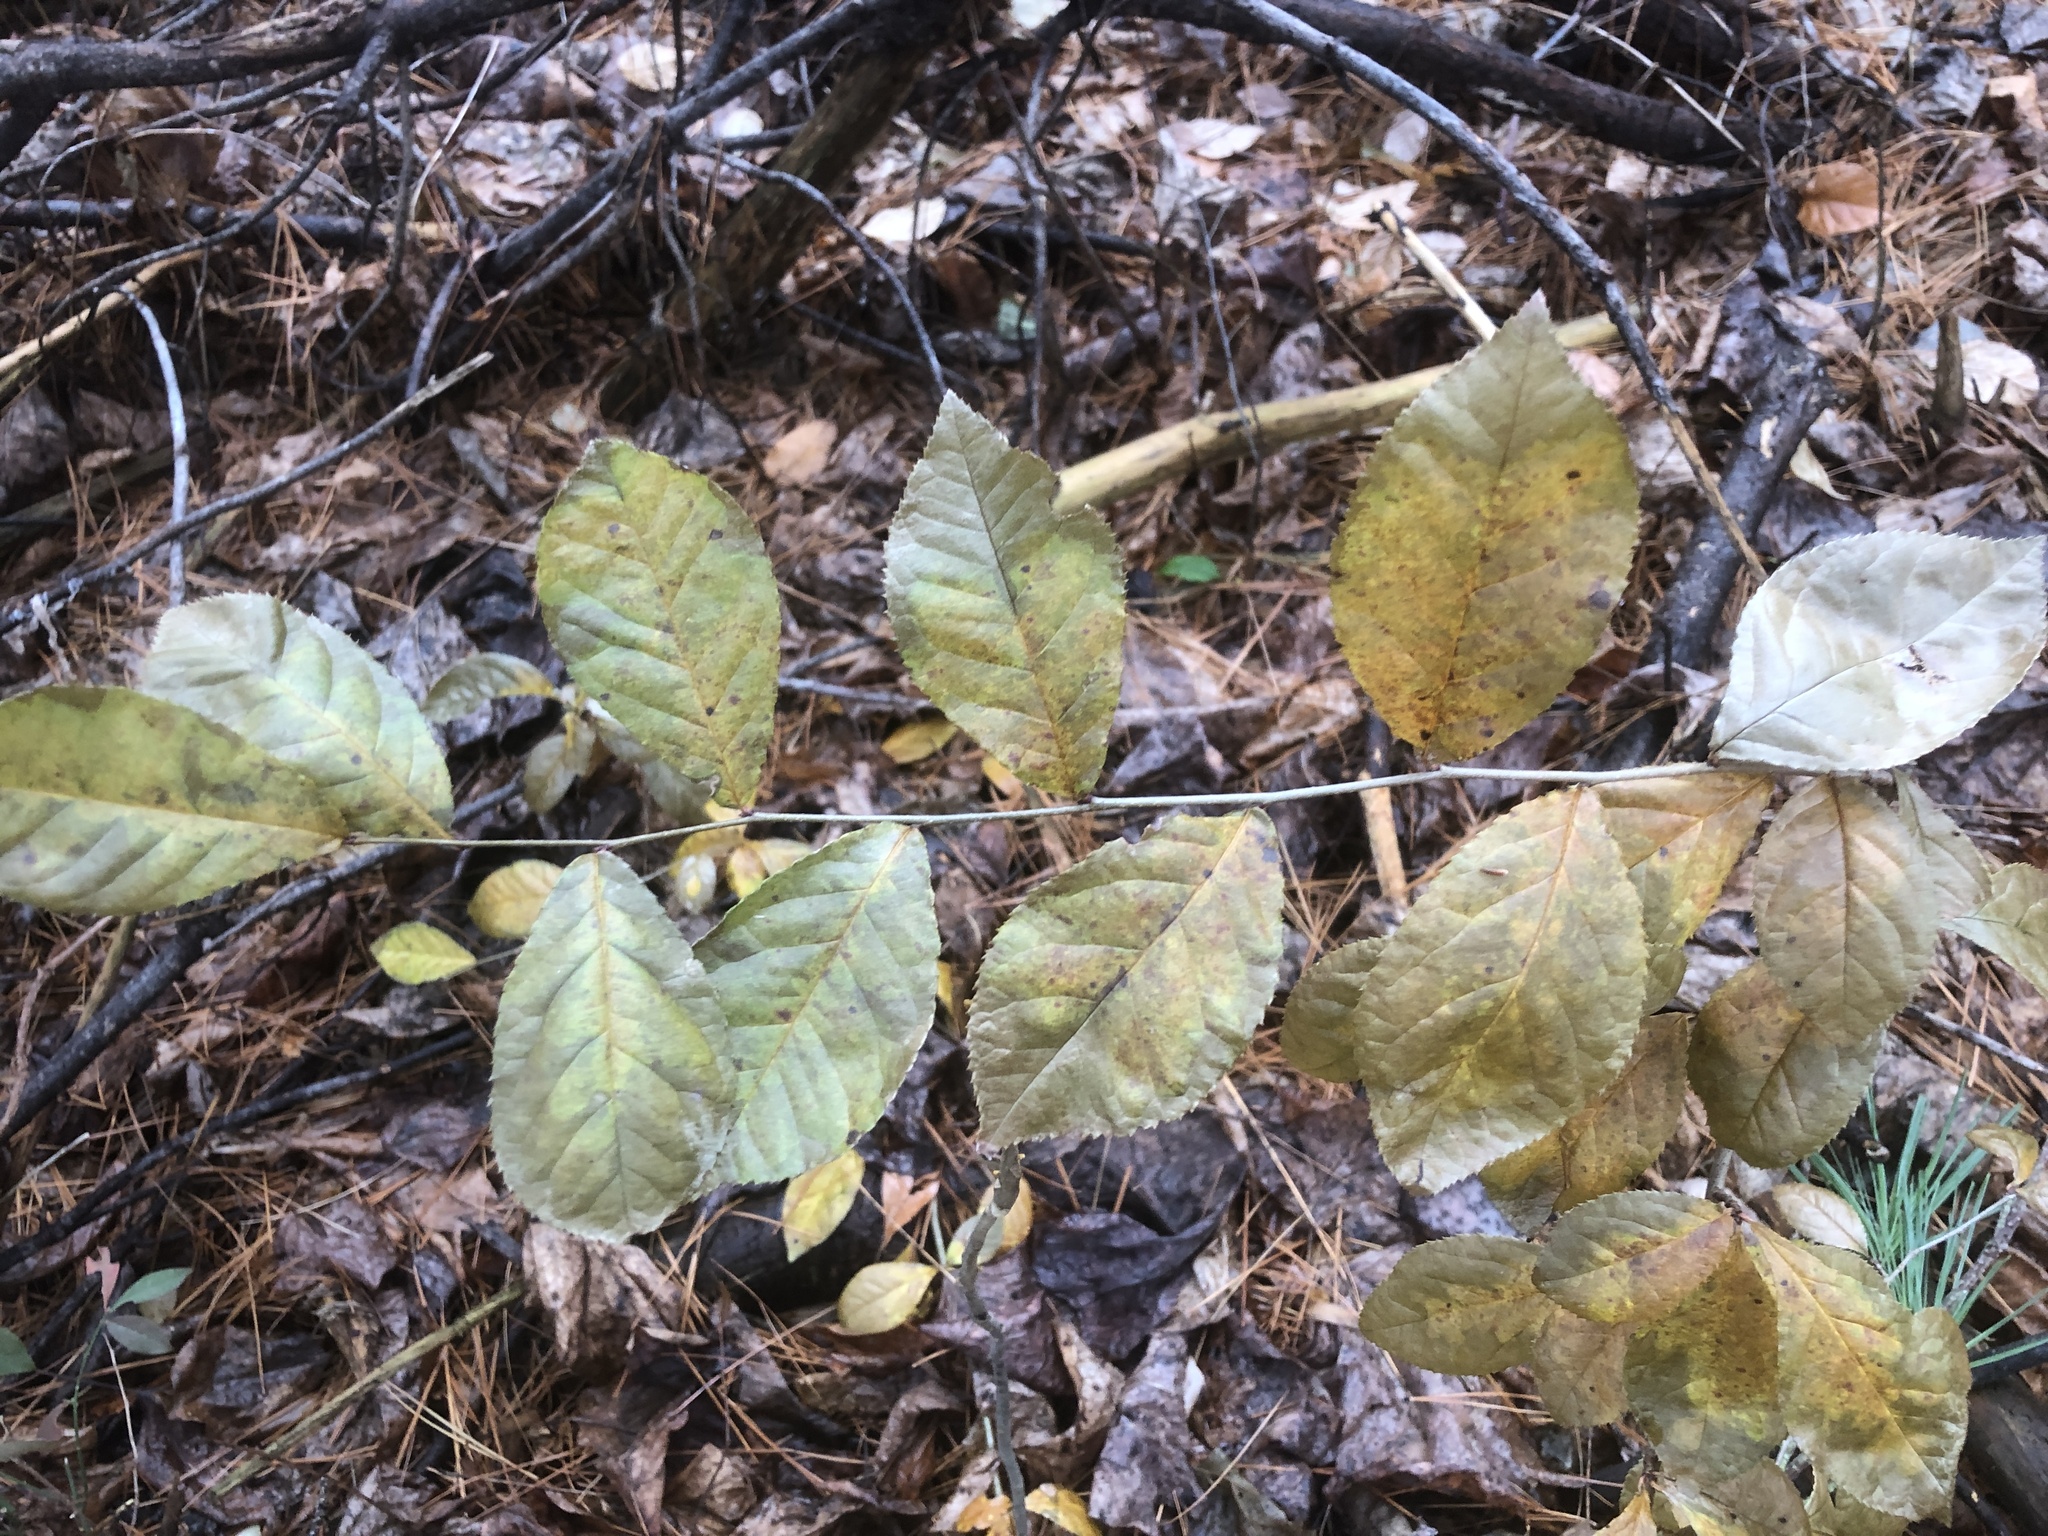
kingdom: Plantae
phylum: Tracheophyta
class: Magnoliopsida
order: Rosales
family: Rosaceae
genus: Pourthiaea
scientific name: Pourthiaea villosa
